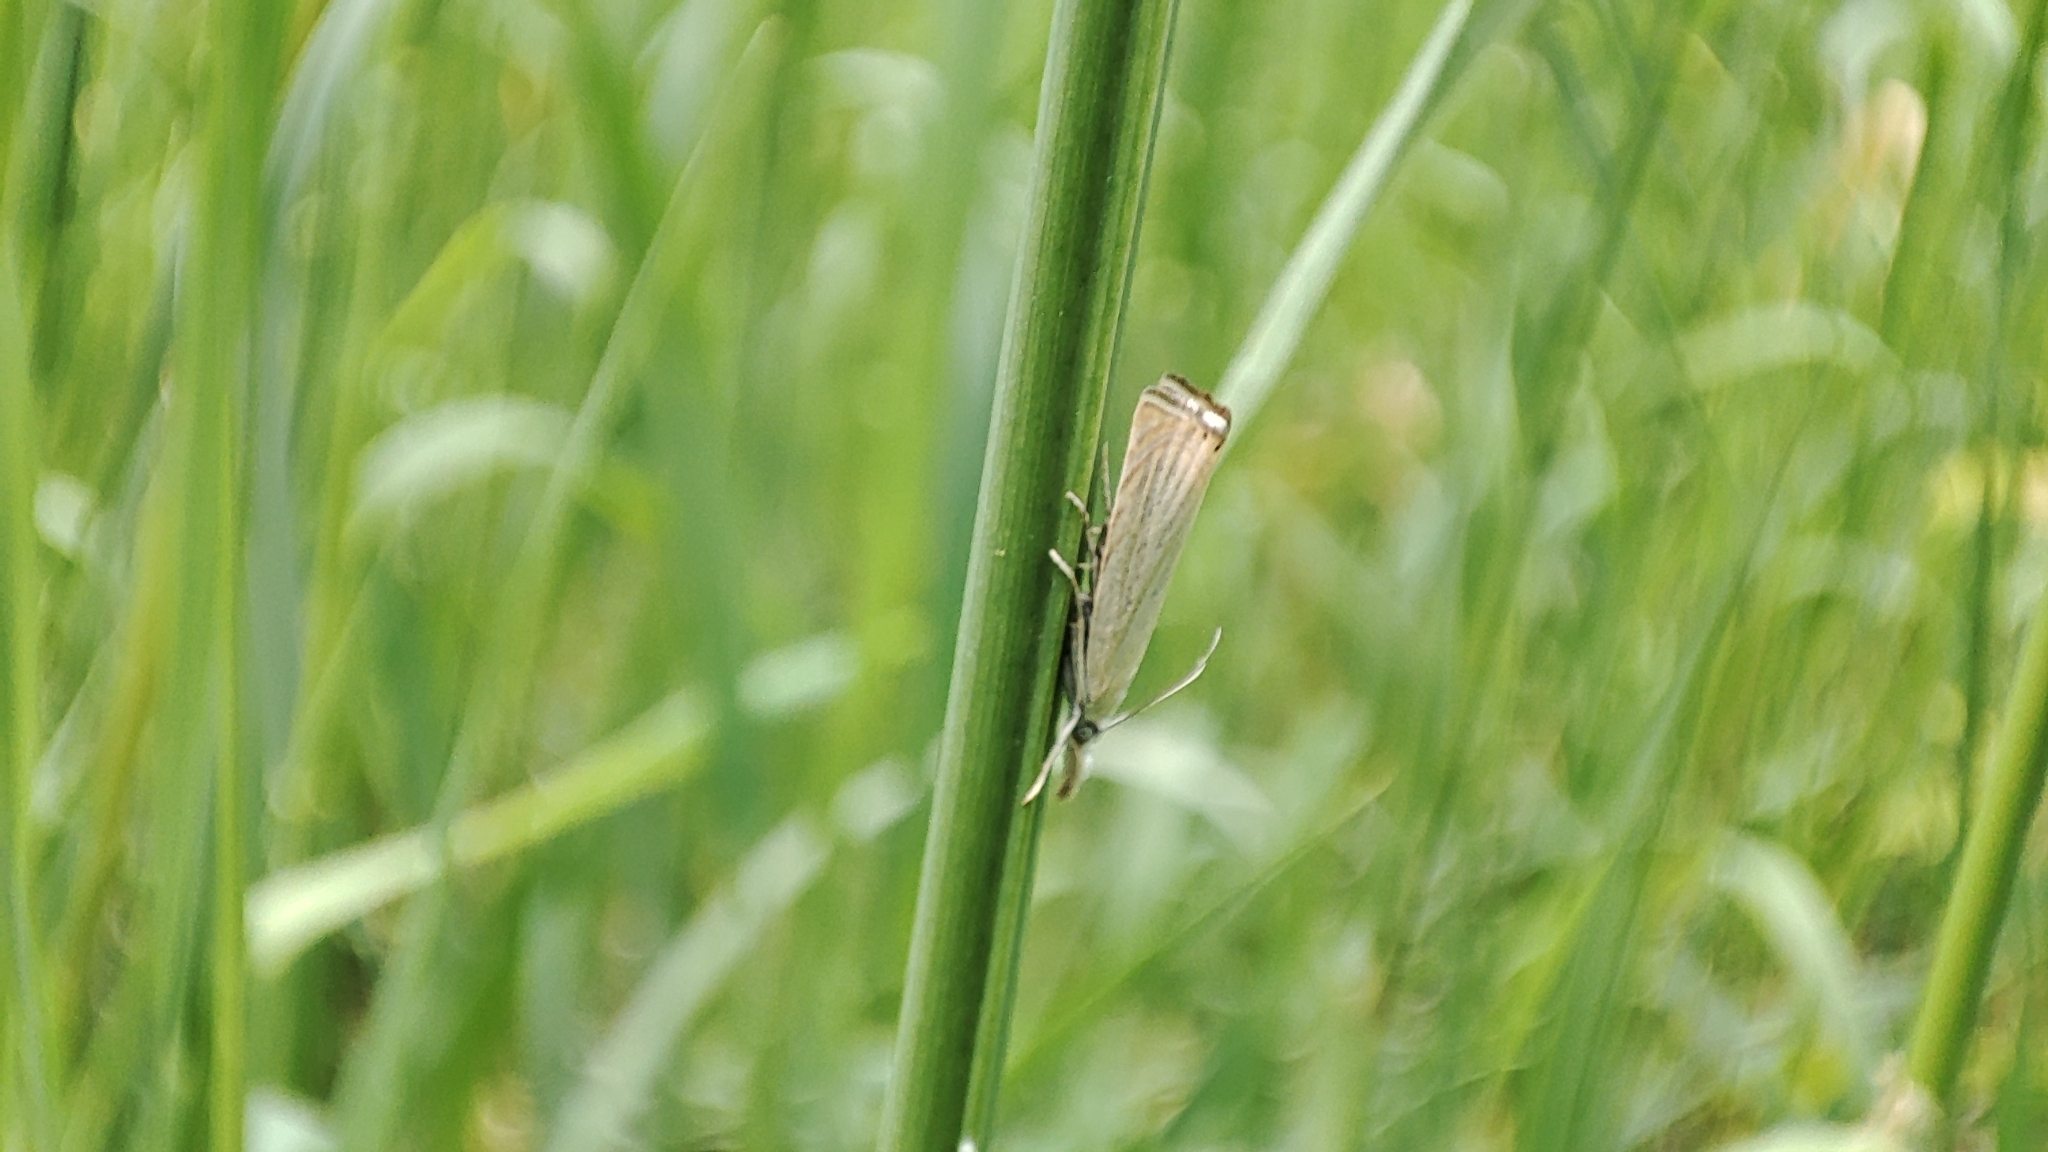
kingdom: Animalia
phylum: Arthropoda
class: Insecta
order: Lepidoptera
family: Crambidae
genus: Chrysoteuchia
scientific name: Chrysoteuchia culmella
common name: Garden grass-veneer
